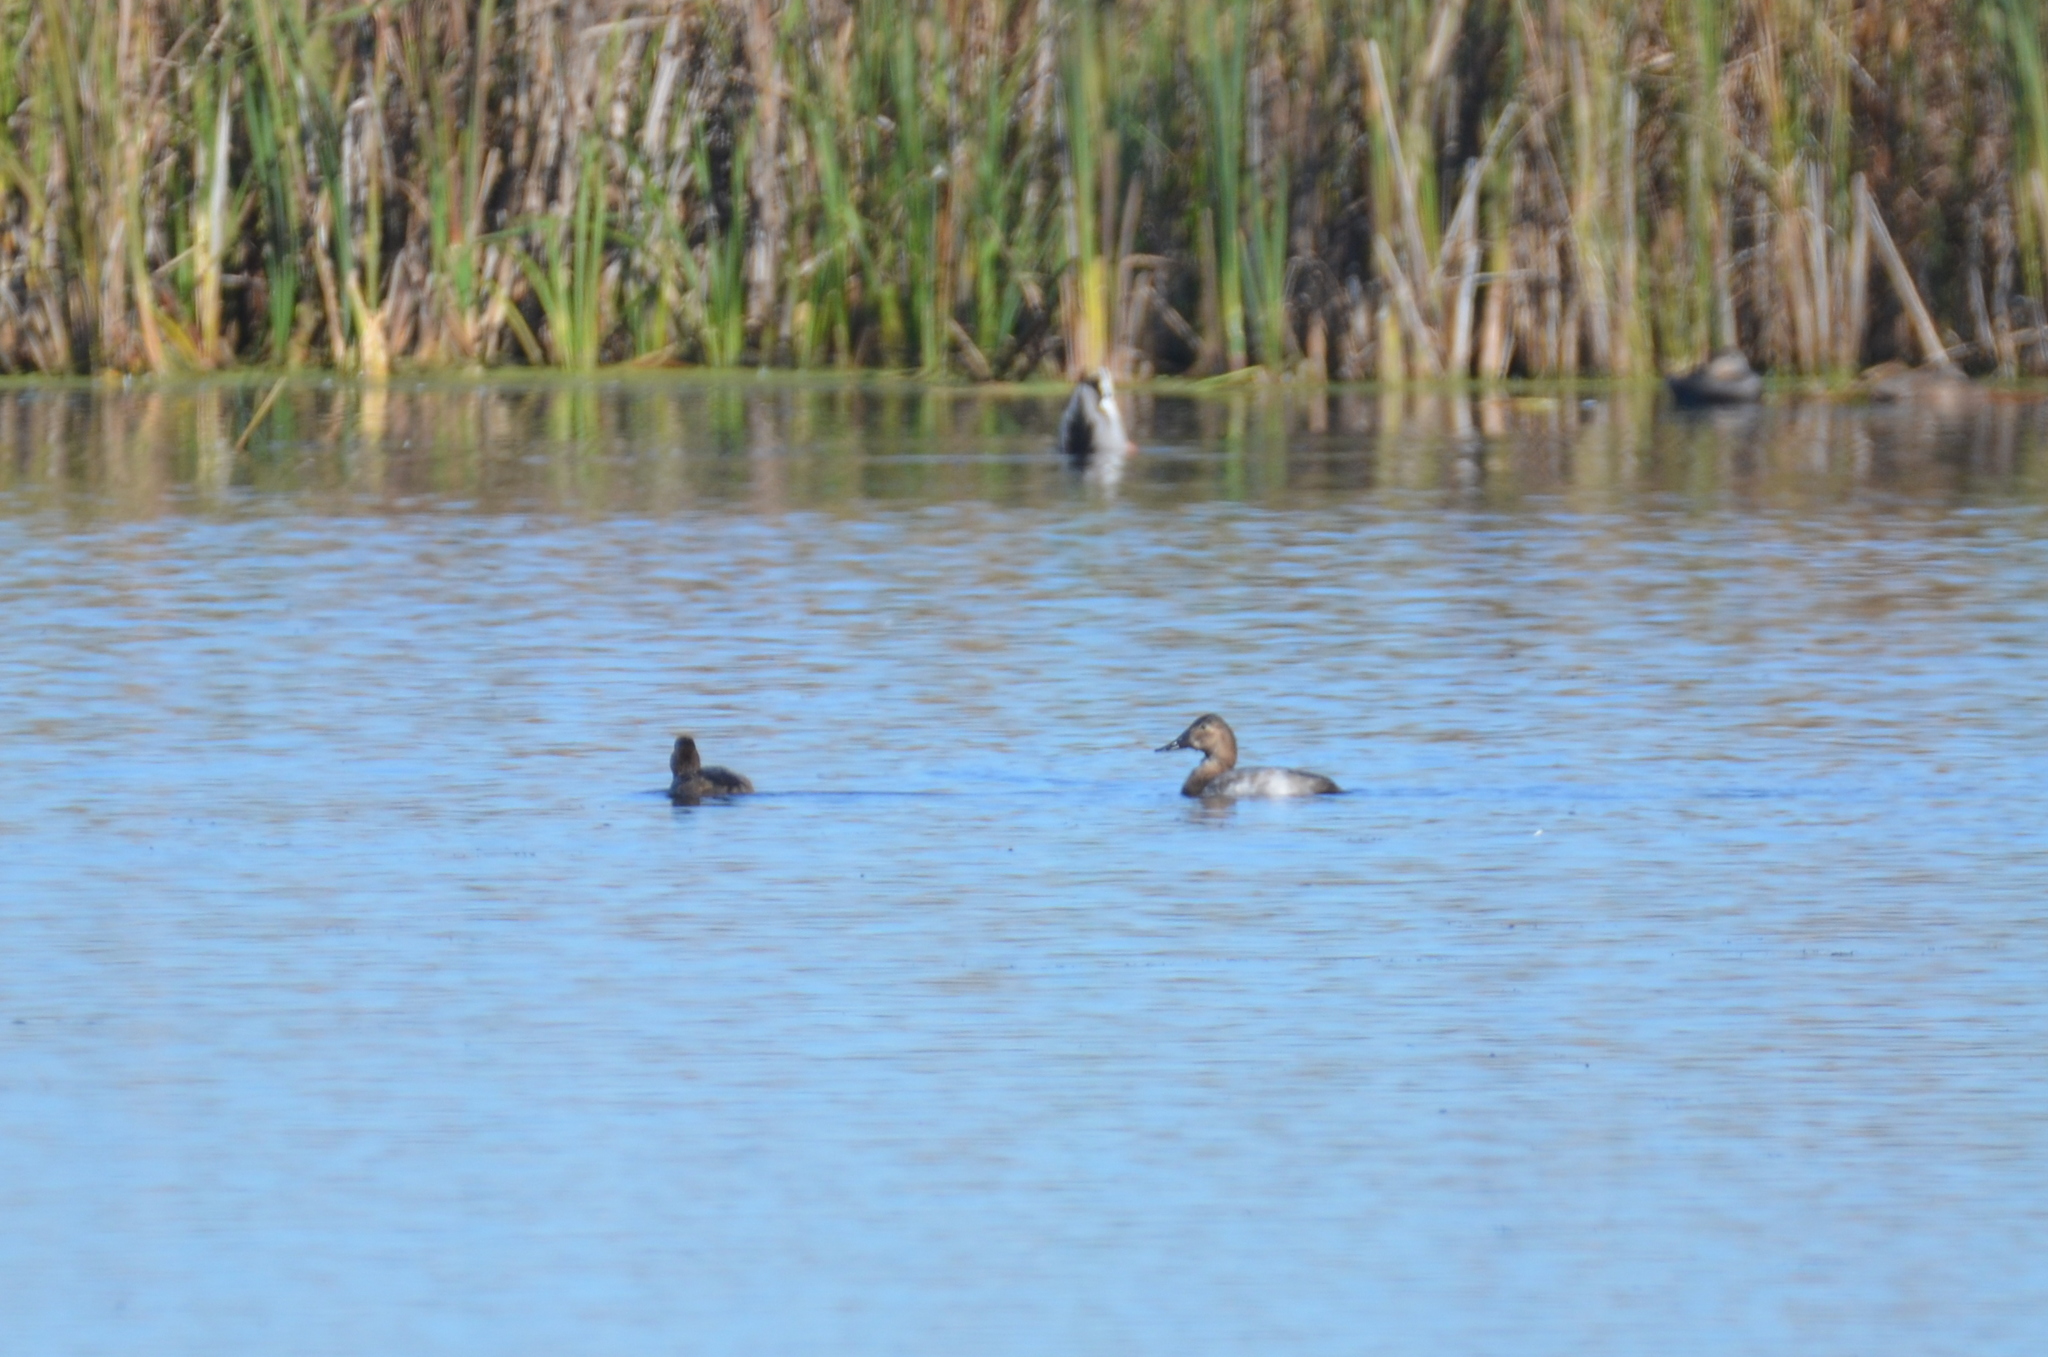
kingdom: Animalia
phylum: Chordata
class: Aves
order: Anseriformes
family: Anatidae
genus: Aythya
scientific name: Aythya valisineria
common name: Canvasback
